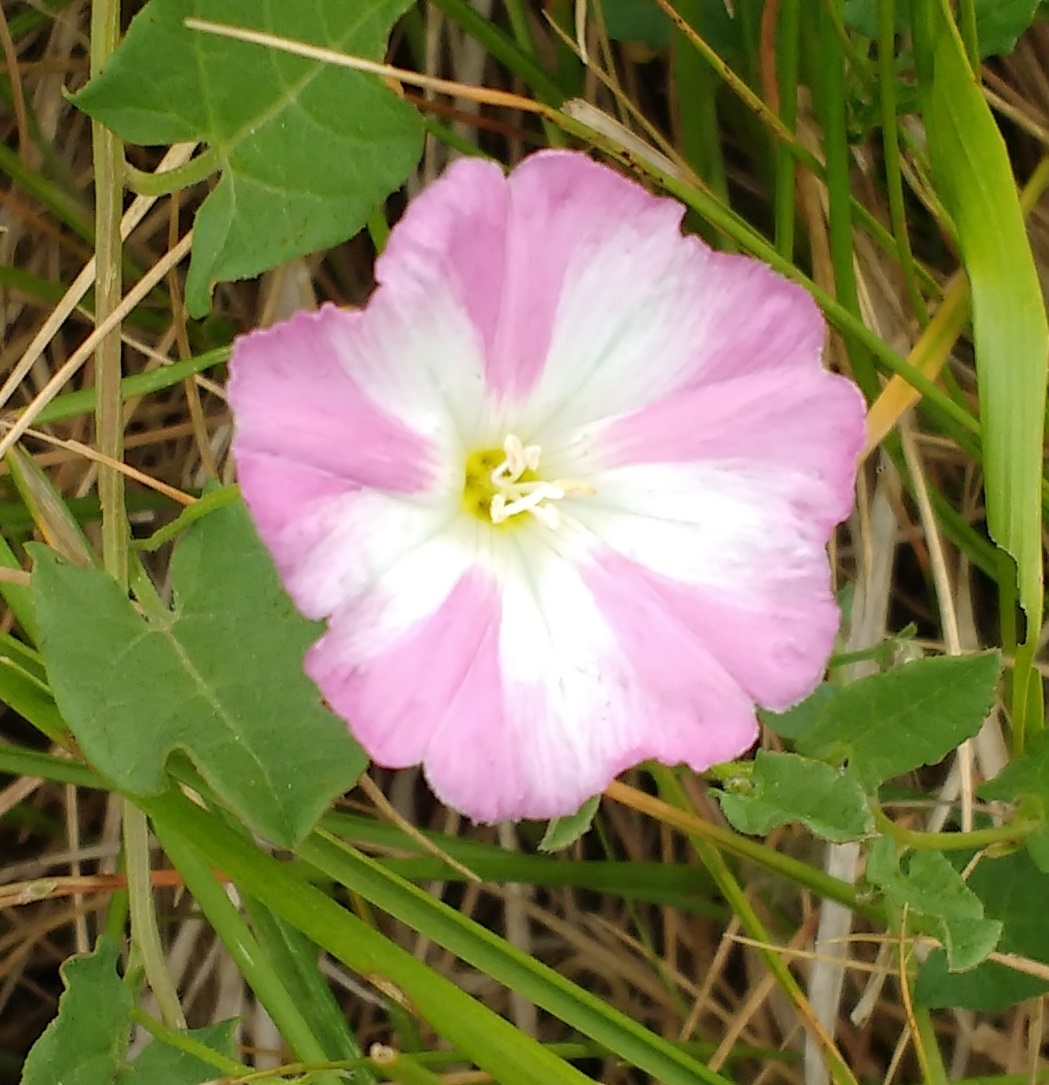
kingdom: Plantae
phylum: Tracheophyta
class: Magnoliopsida
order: Solanales
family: Convolvulaceae
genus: Convolvulus
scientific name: Convolvulus arvensis
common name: Field bindweed
